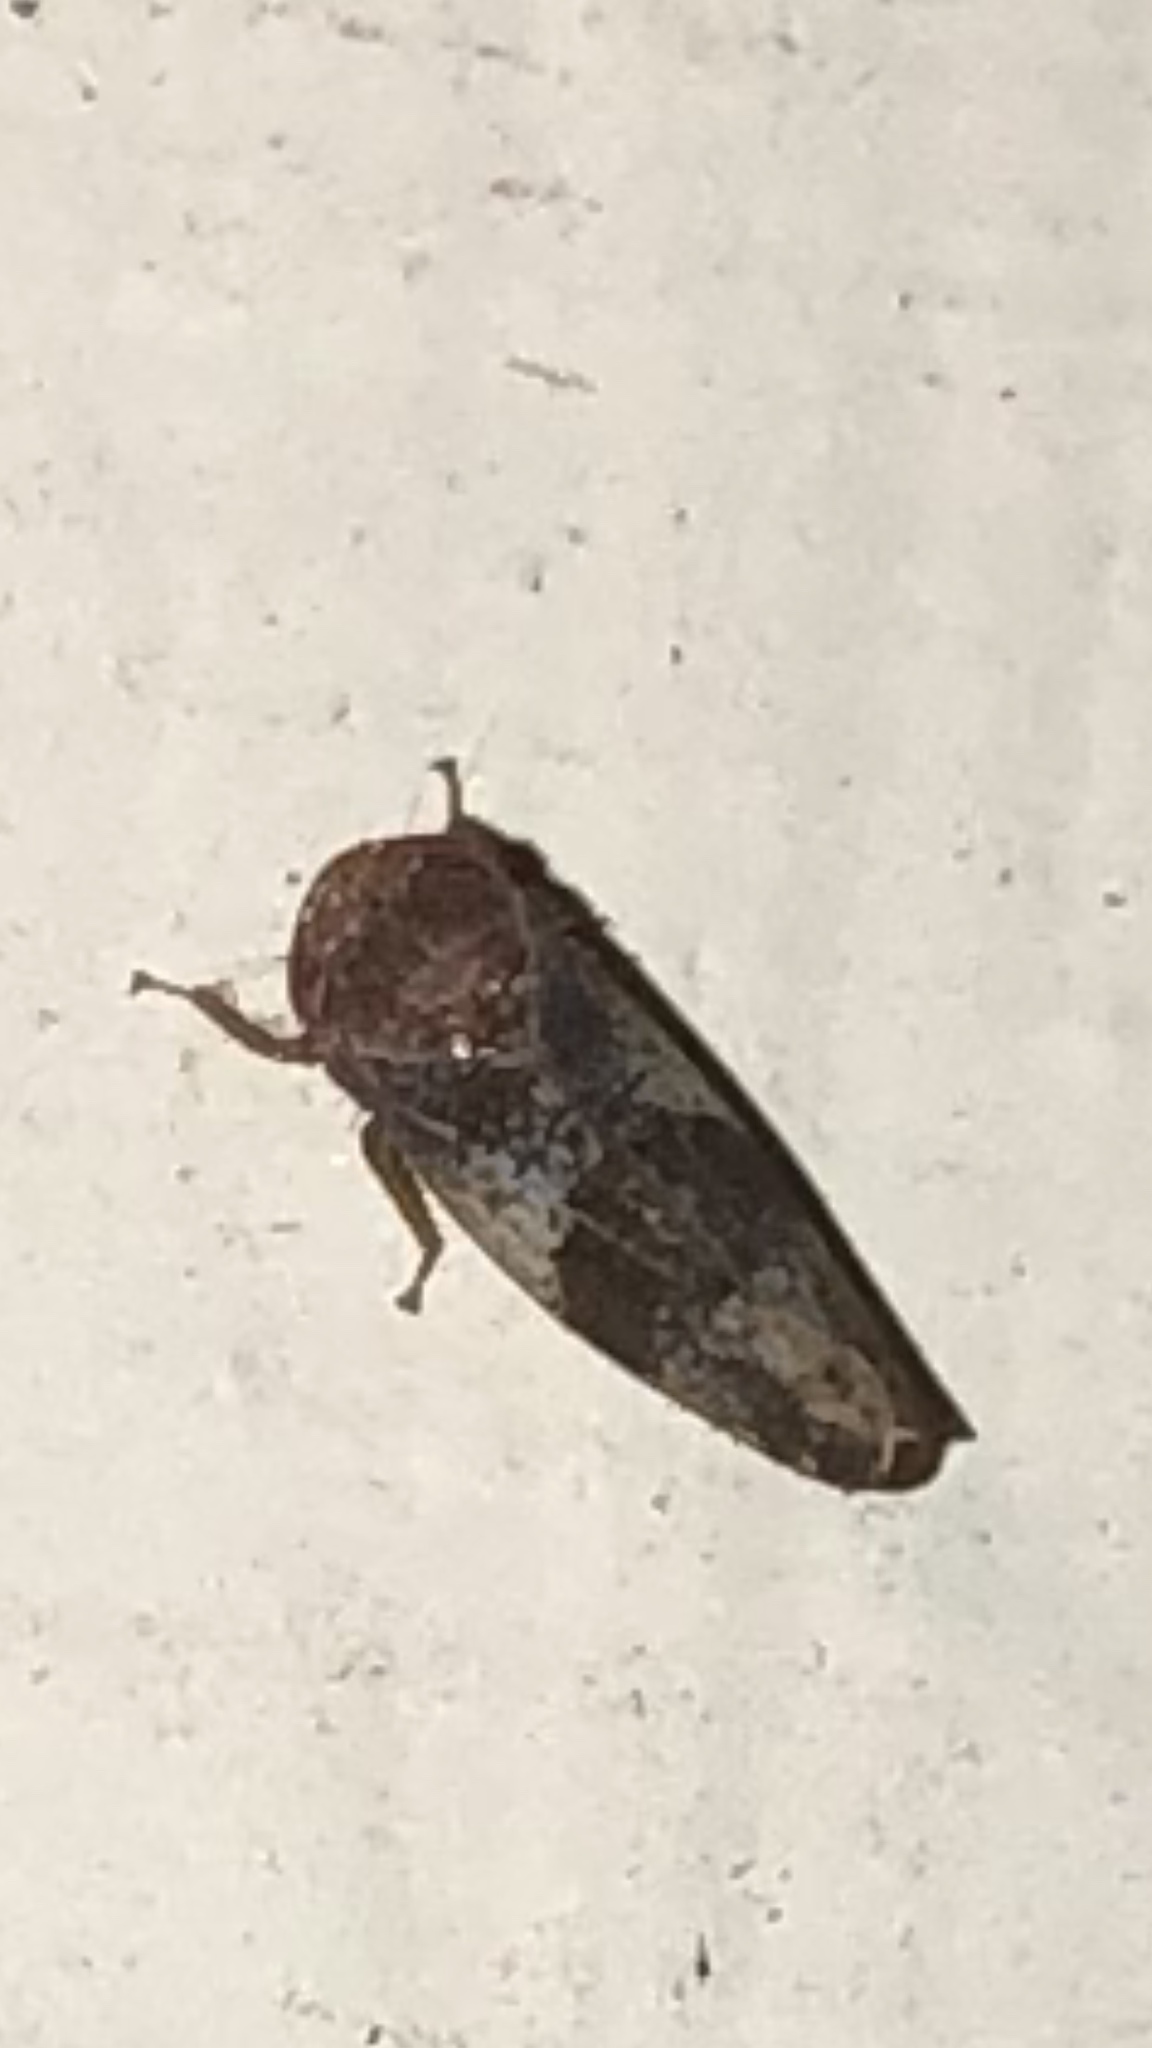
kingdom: Animalia
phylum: Arthropoda
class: Insecta
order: Hemiptera
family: Cicadellidae
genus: Norvellina
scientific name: Norvellina helenae
